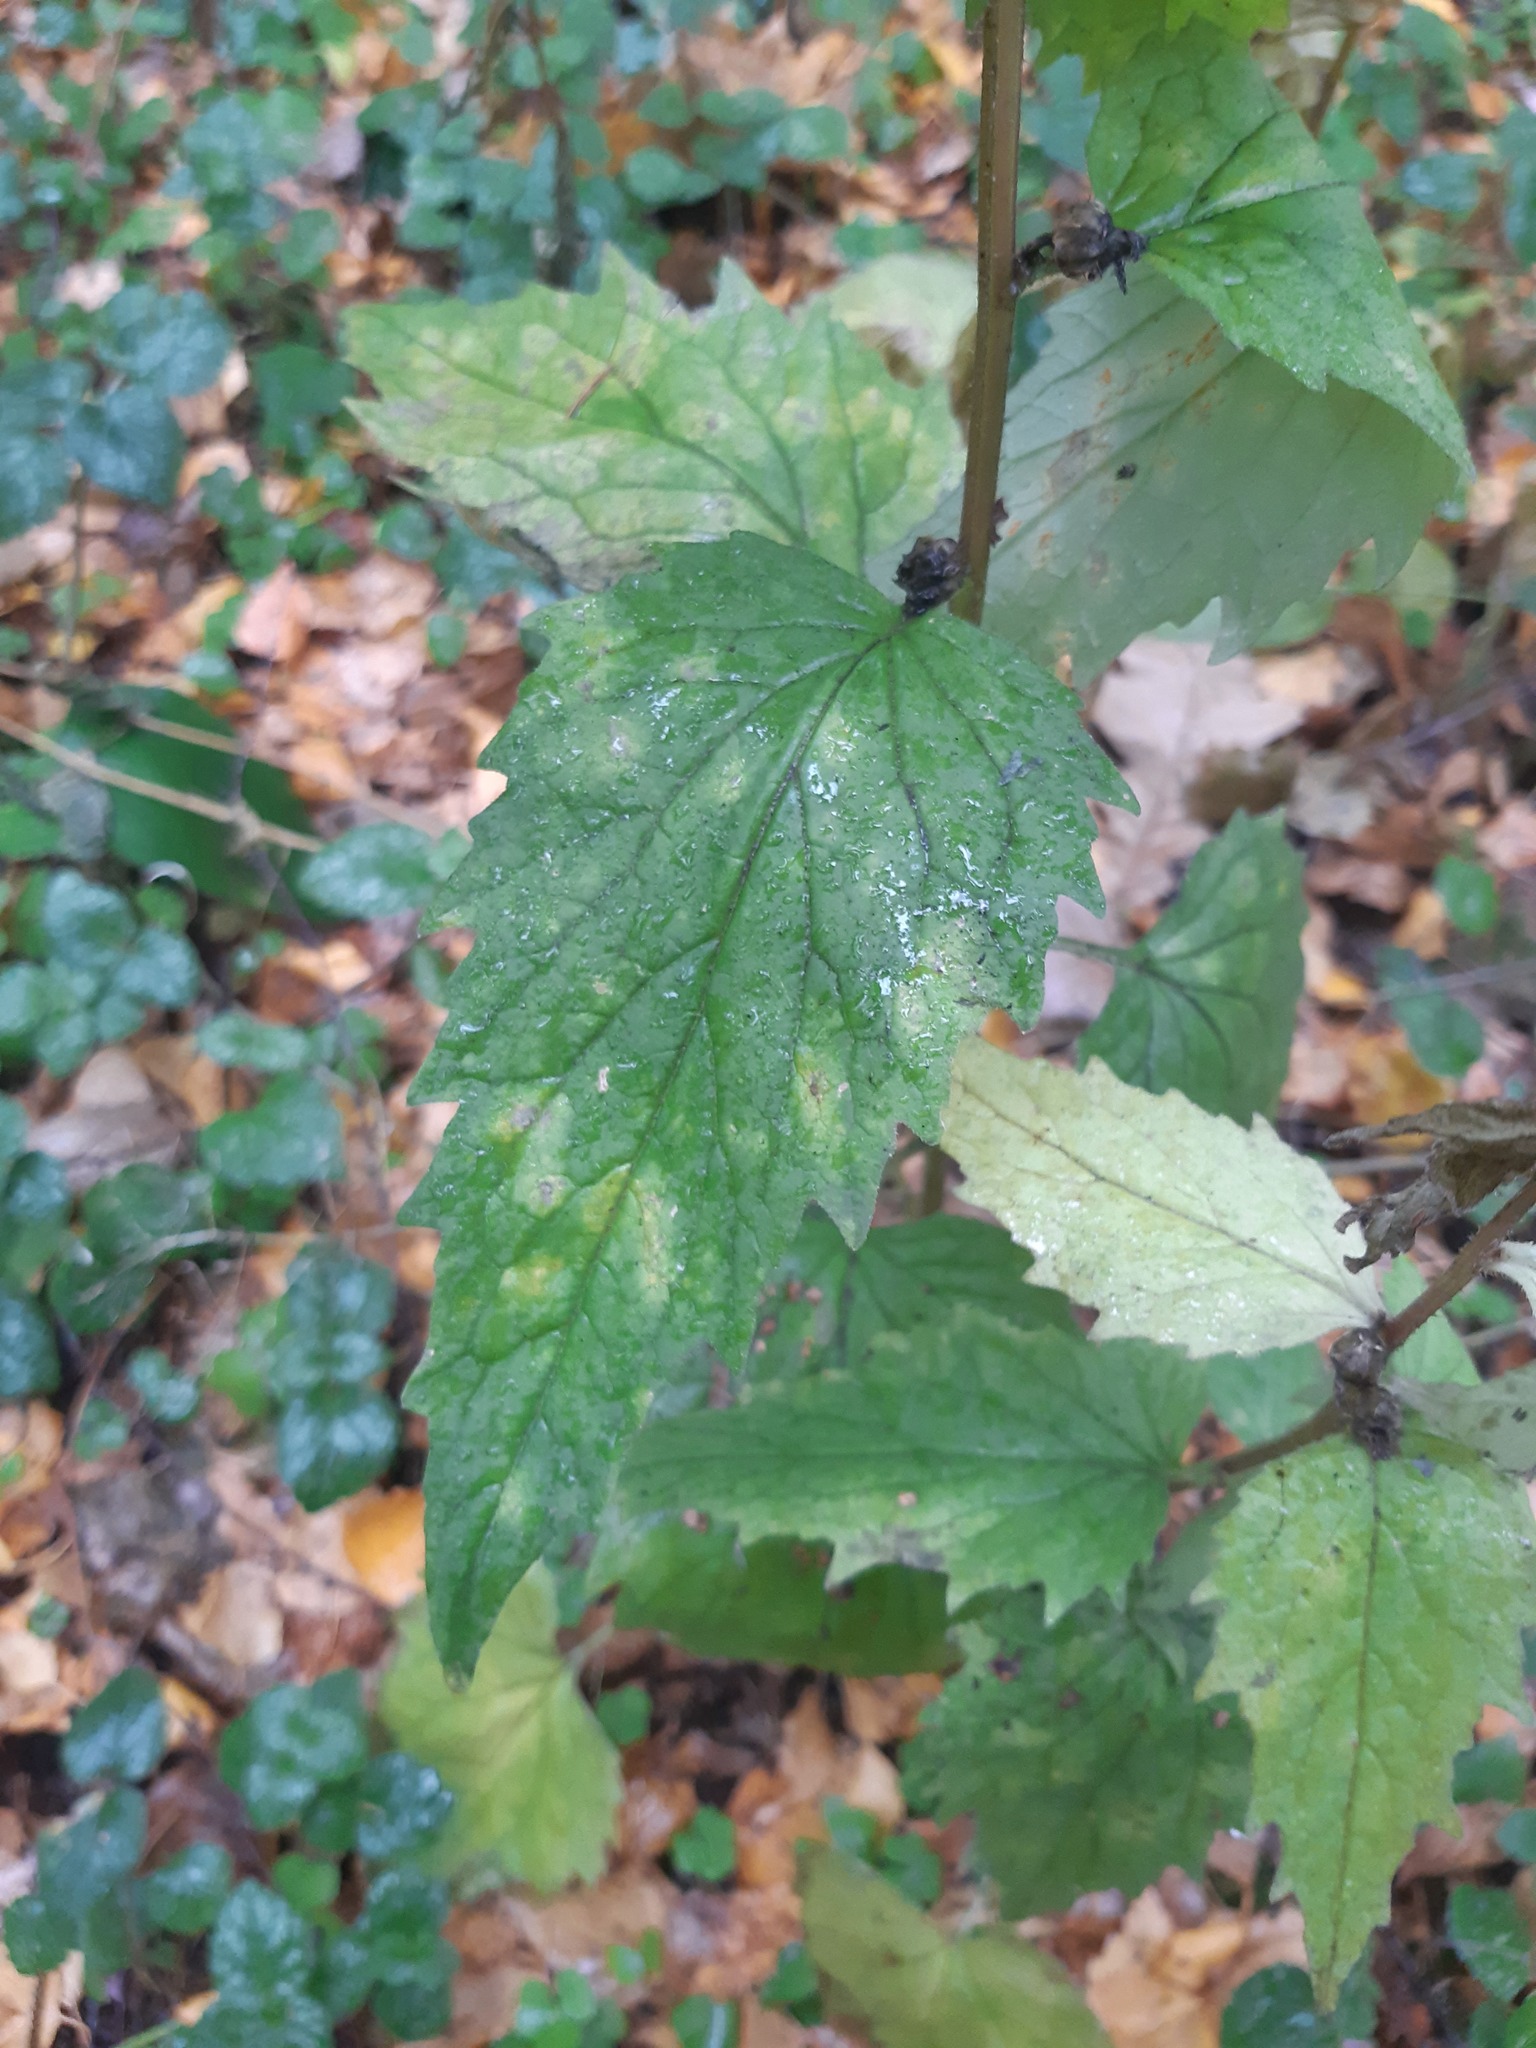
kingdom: Plantae
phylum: Tracheophyta
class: Magnoliopsida
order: Asterales
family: Campanulaceae
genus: Campanula
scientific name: Campanula trachelium
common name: Nettle-leaved bellflower
